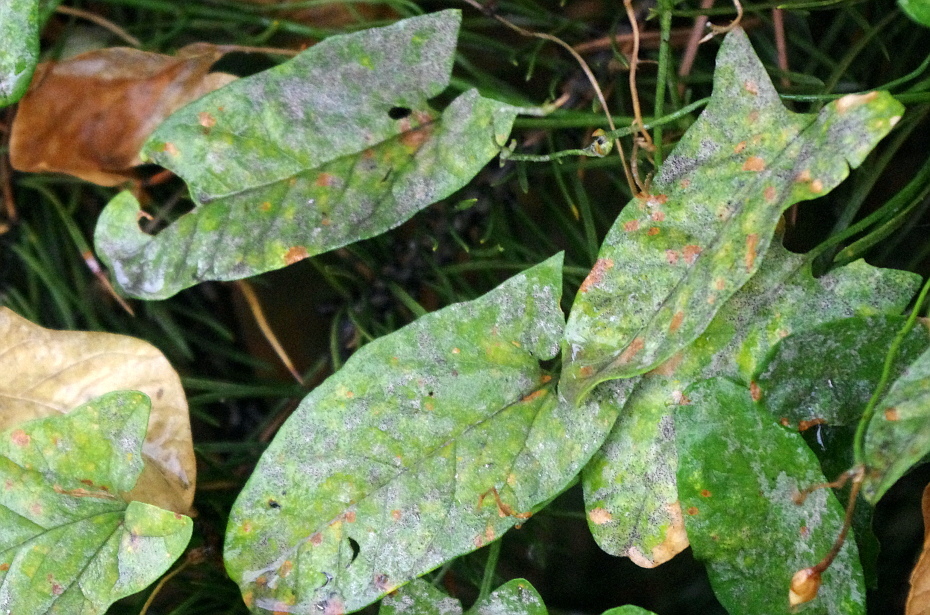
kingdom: Fungi
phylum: Ascomycota
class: Leotiomycetes
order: Helotiales
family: Erysiphaceae
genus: Erysiphe
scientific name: Erysiphe convolvuli
